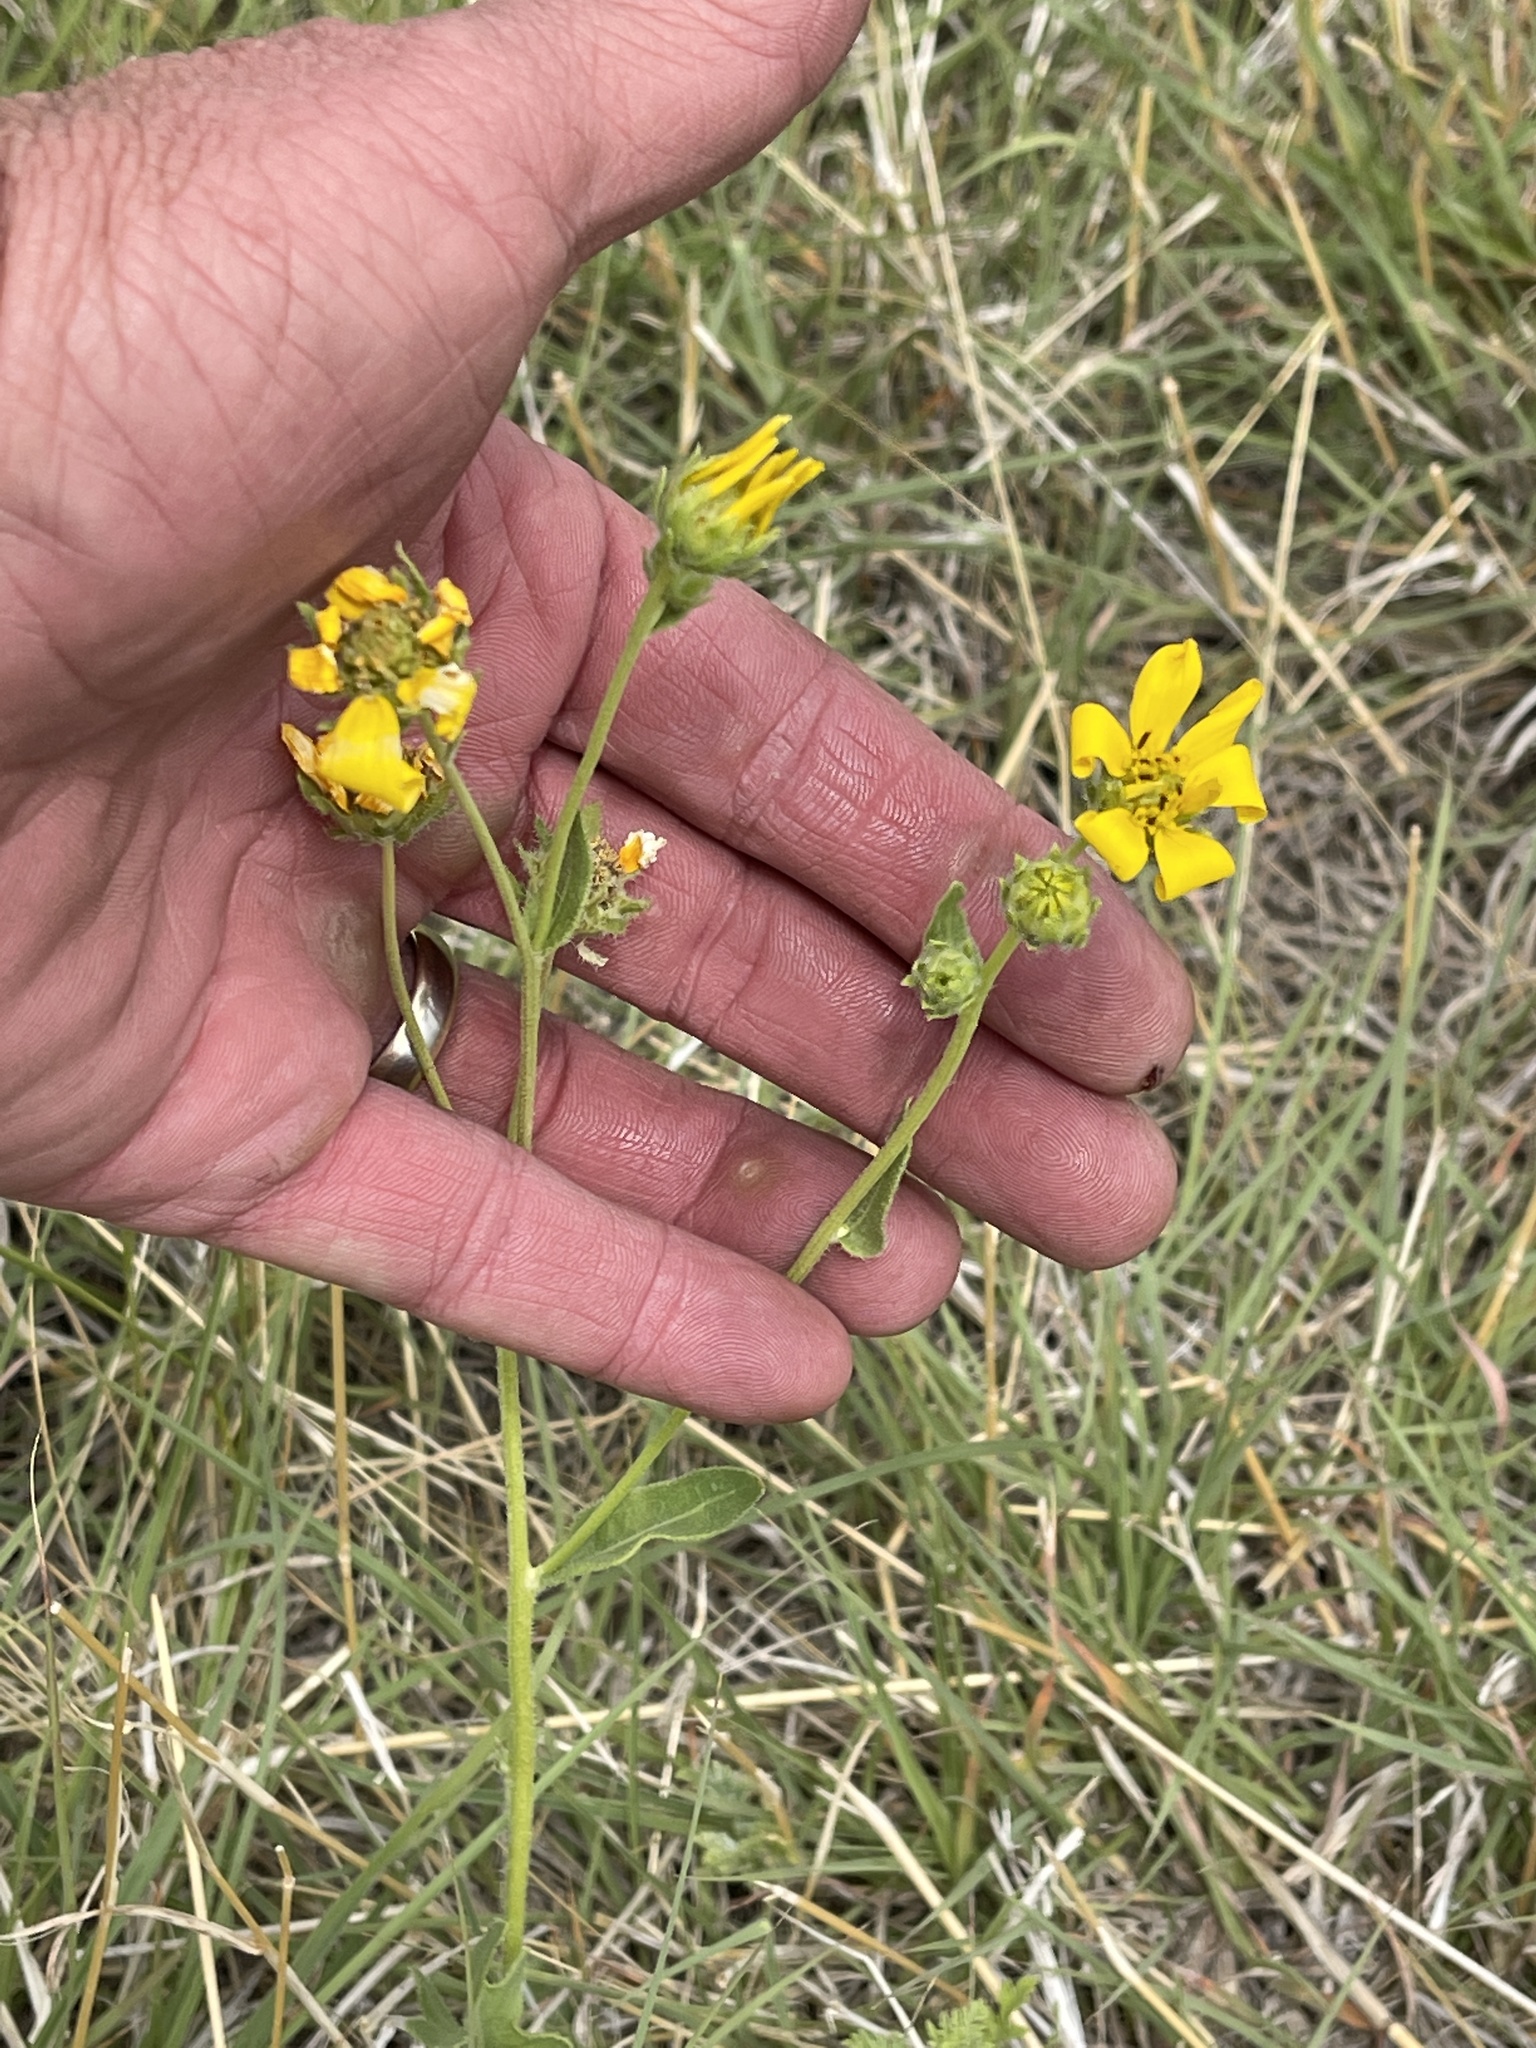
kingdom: Plantae
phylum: Tracheophyta
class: Magnoliopsida
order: Asterales
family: Asteraceae
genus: Engelmannia
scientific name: Engelmannia peristenia
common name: Engelmann's daisy
